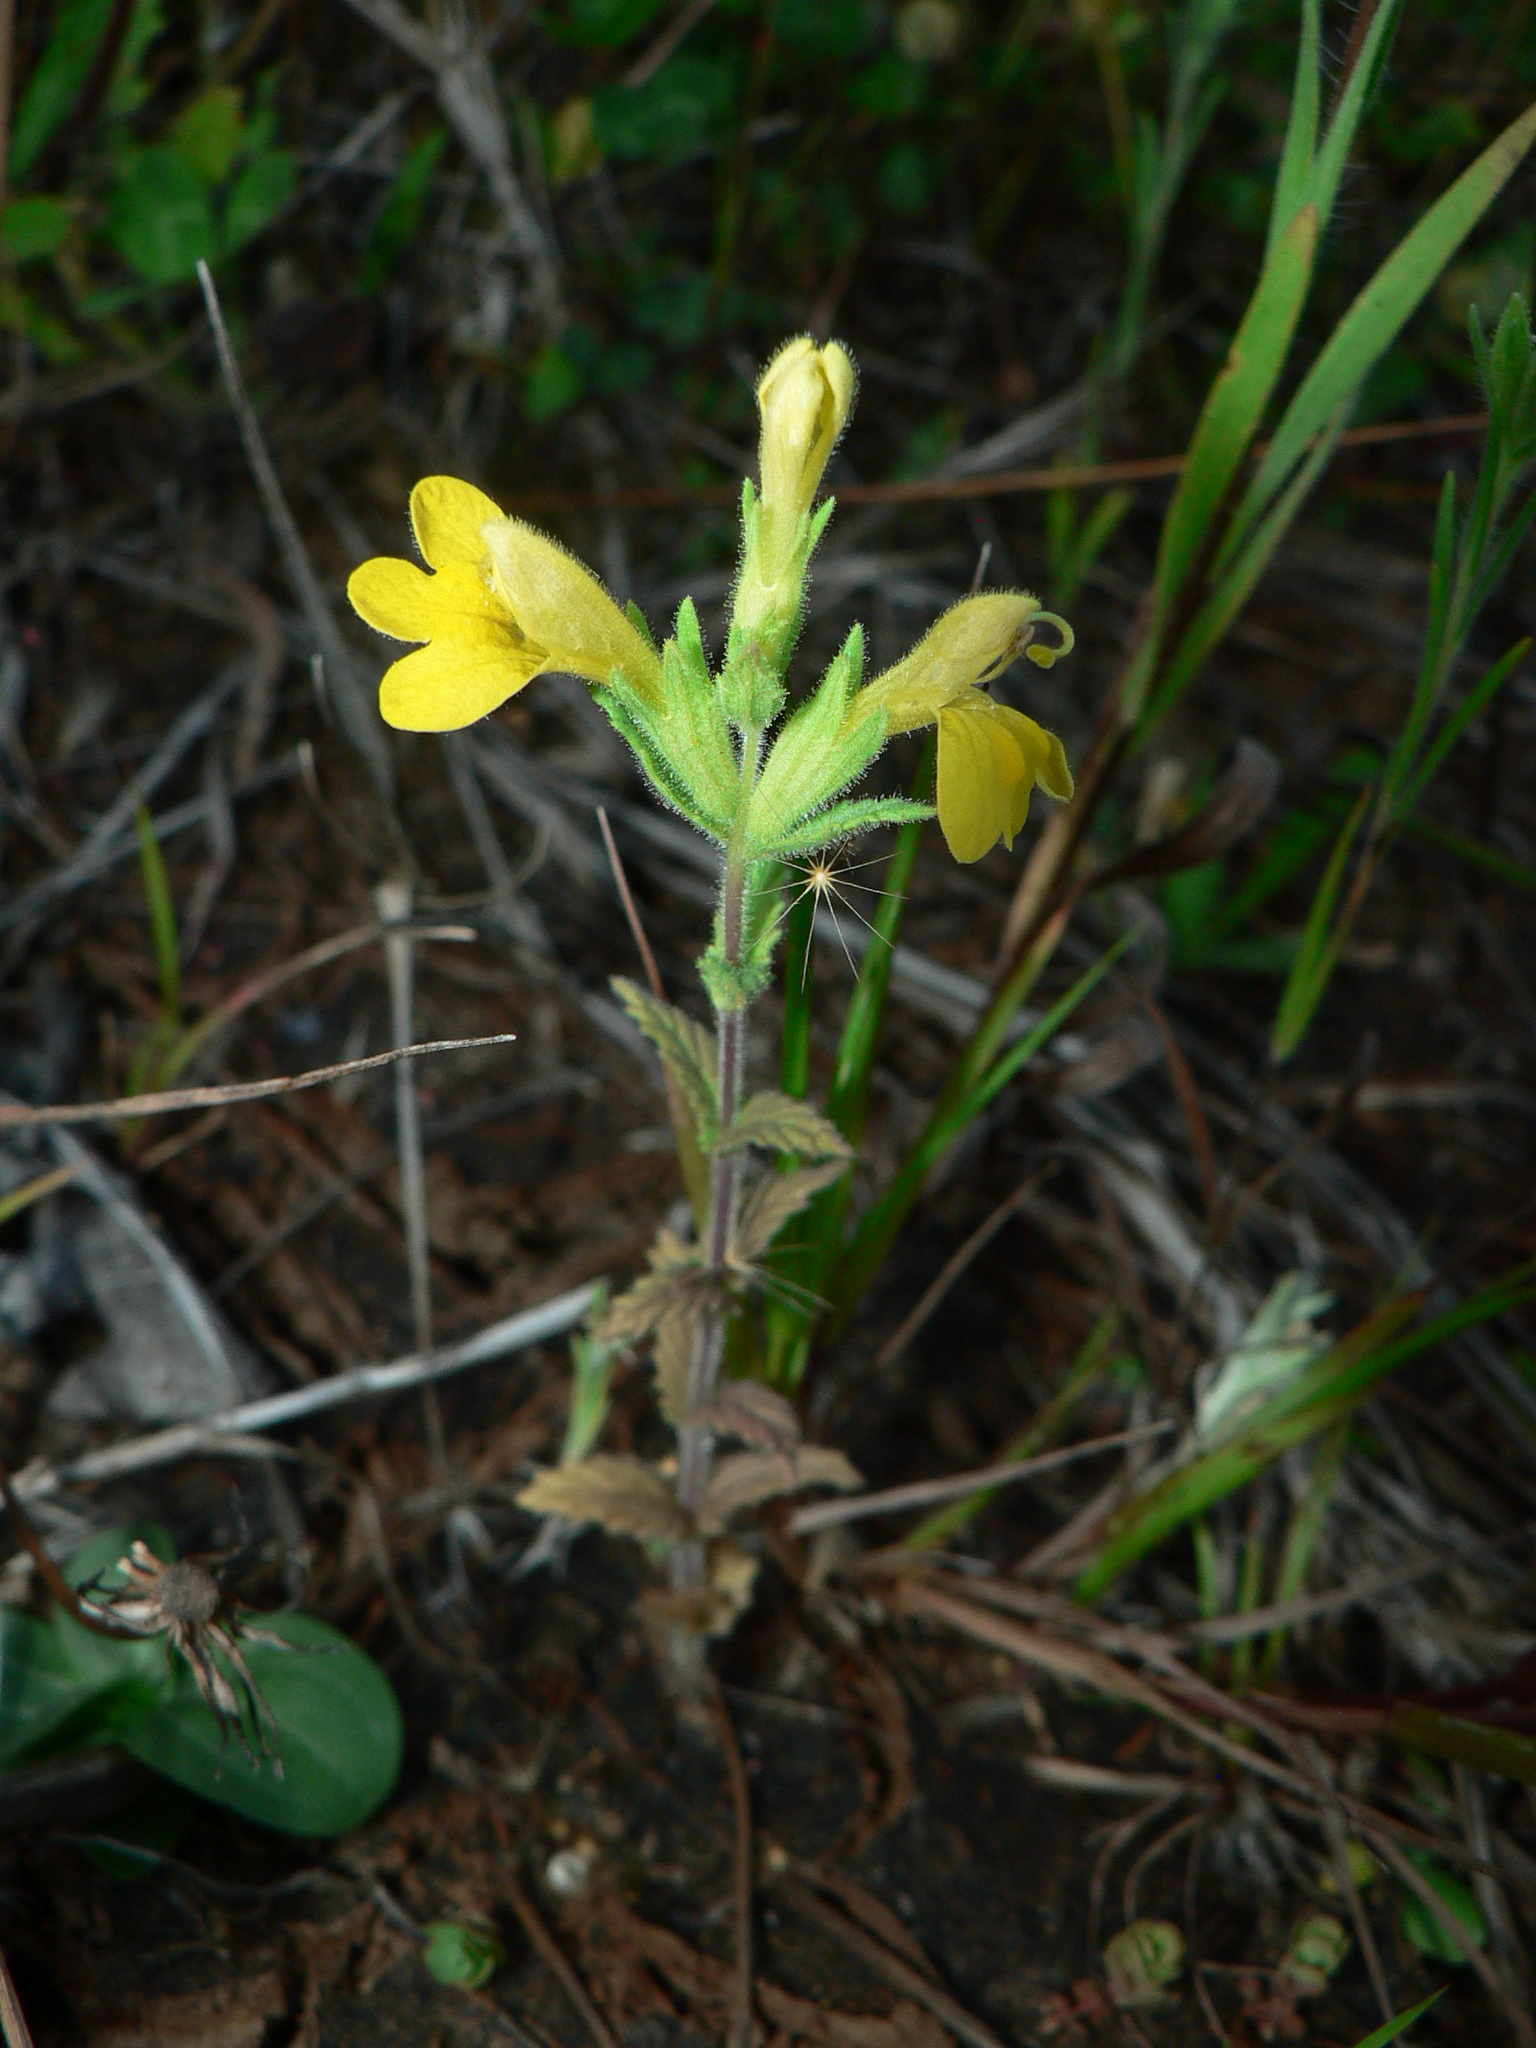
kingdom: Plantae
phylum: Tracheophyta
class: Magnoliopsida
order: Lamiales
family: Orobanchaceae
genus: Bellardia
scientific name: Bellardia viscosa
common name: Sticky parentucellia
